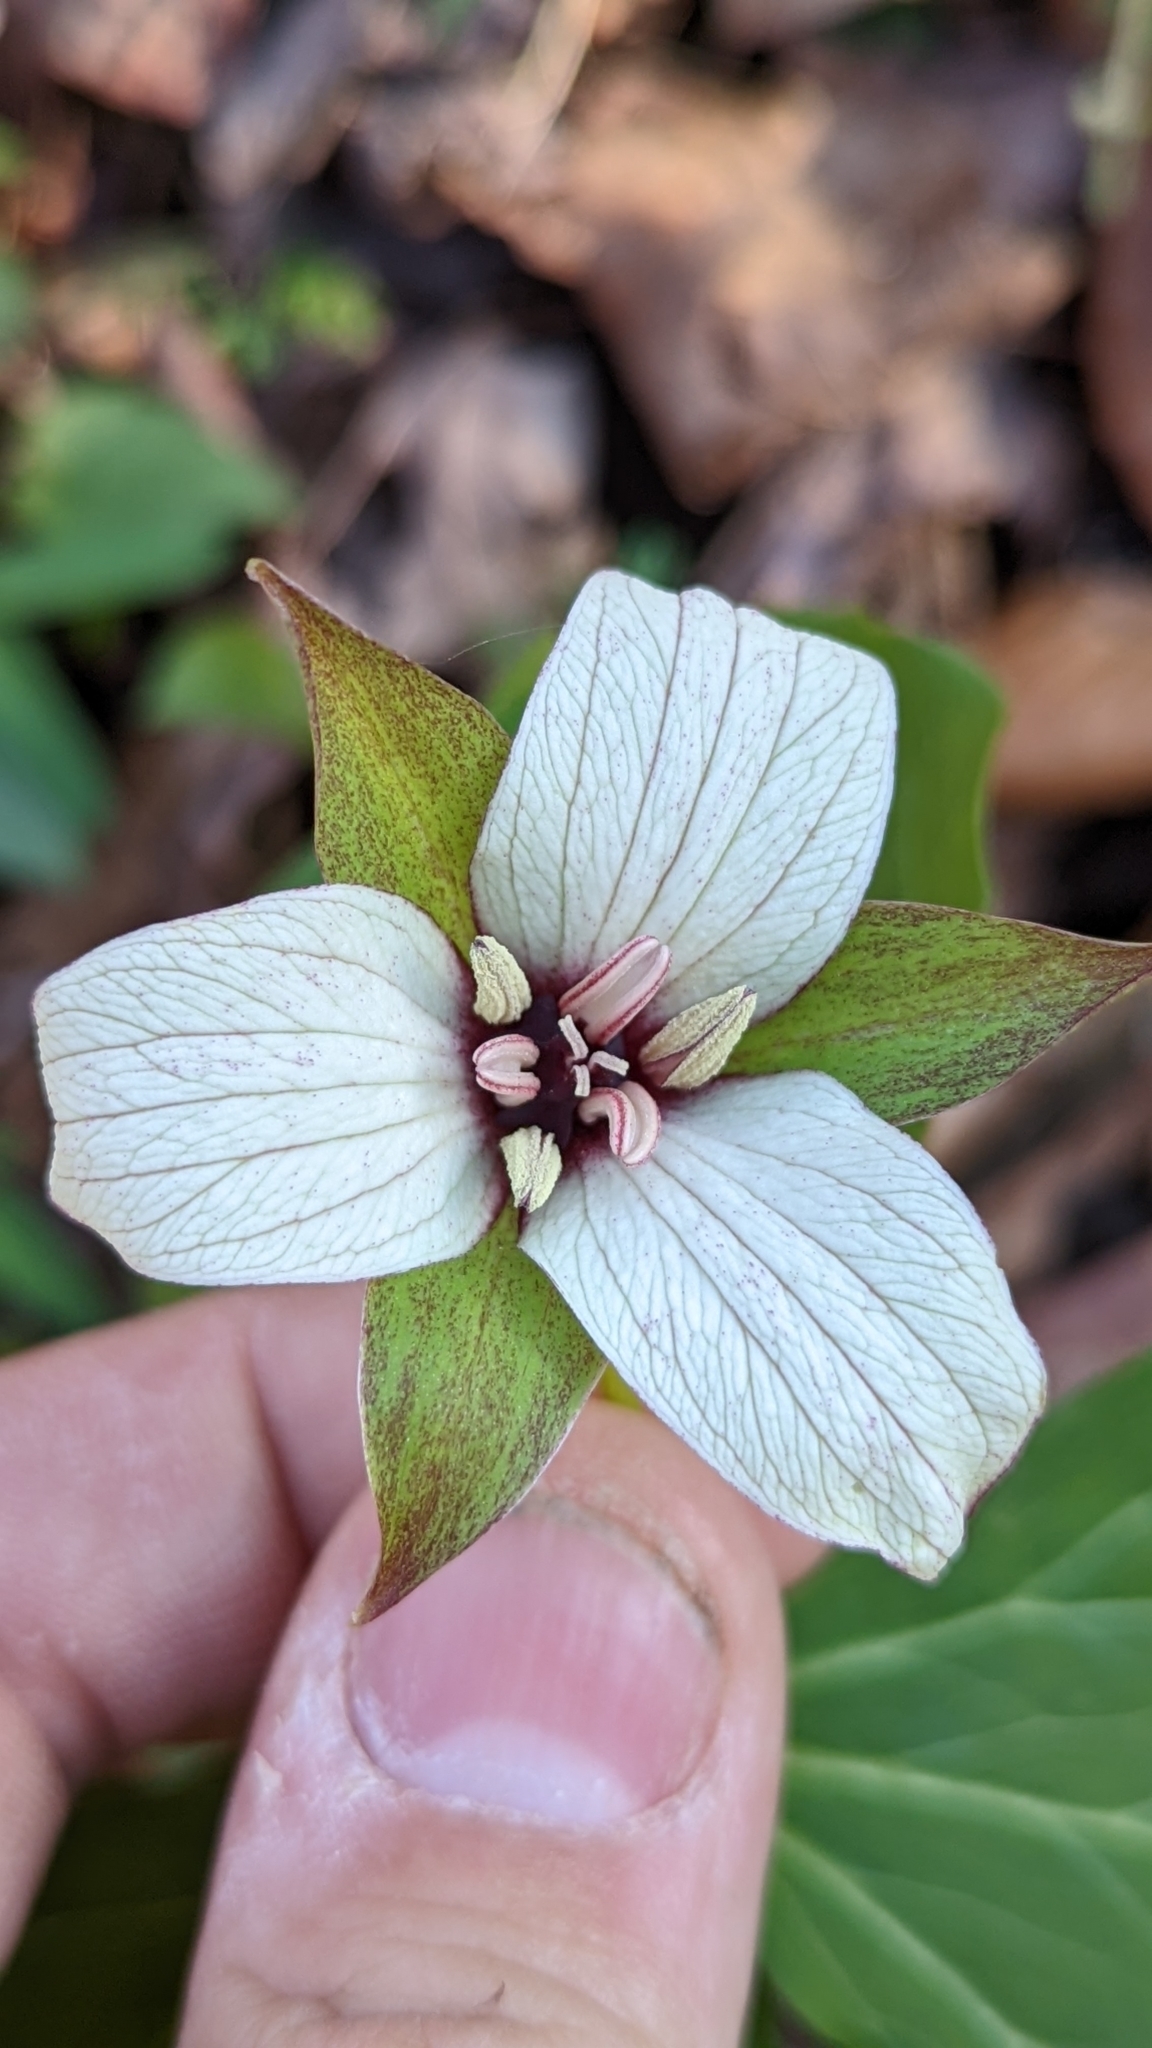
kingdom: Plantae
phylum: Tracheophyta
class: Liliopsida
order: Liliales
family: Melanthiaceae
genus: Trillium
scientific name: Trillium erectum
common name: Purple trillium
